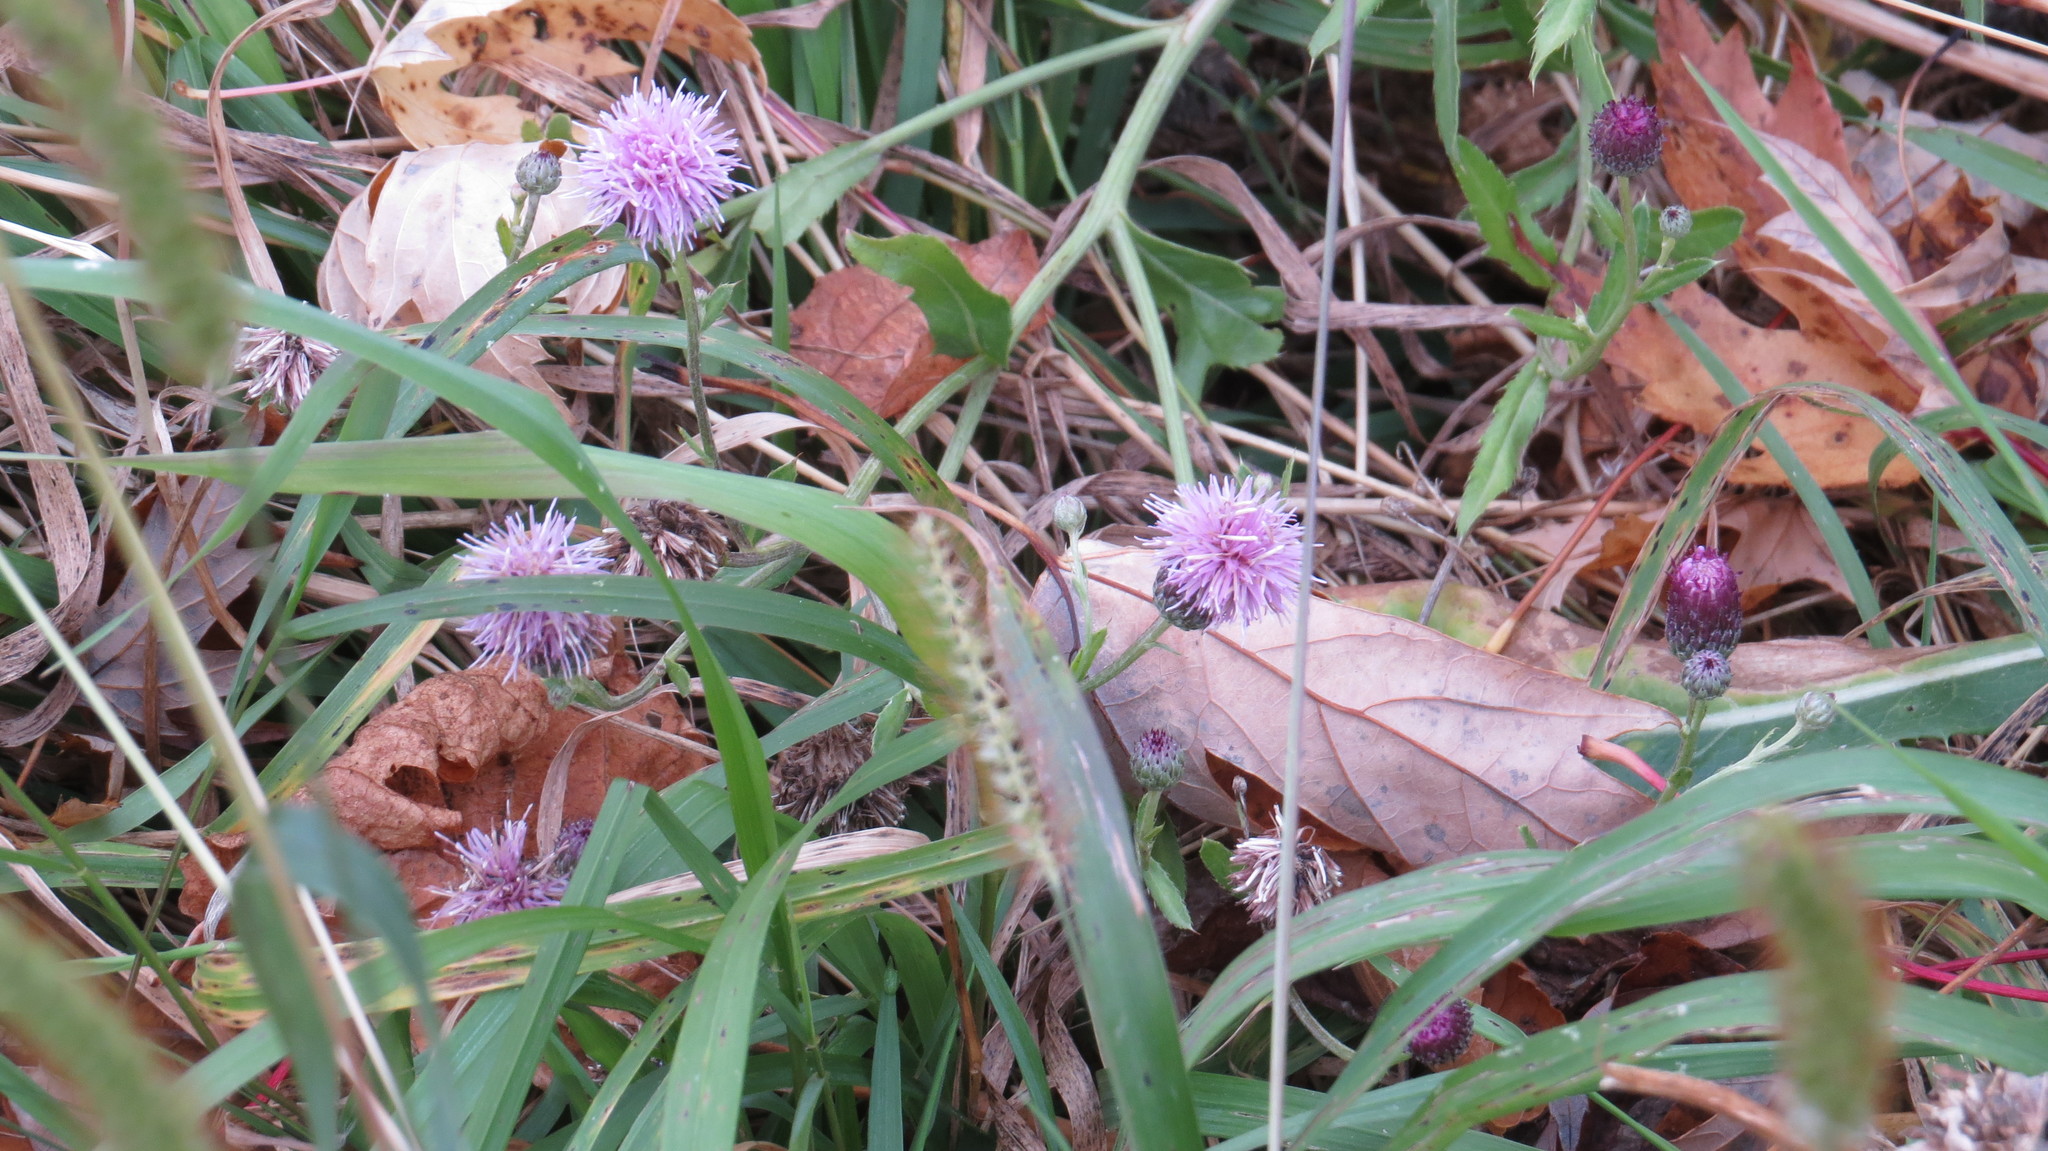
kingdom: Plantae
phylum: Tracheophyta
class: Magnoliopsida
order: Asterales
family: Asteraceae
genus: Cirsium
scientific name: Cirsium arvense
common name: Creeping thistle
